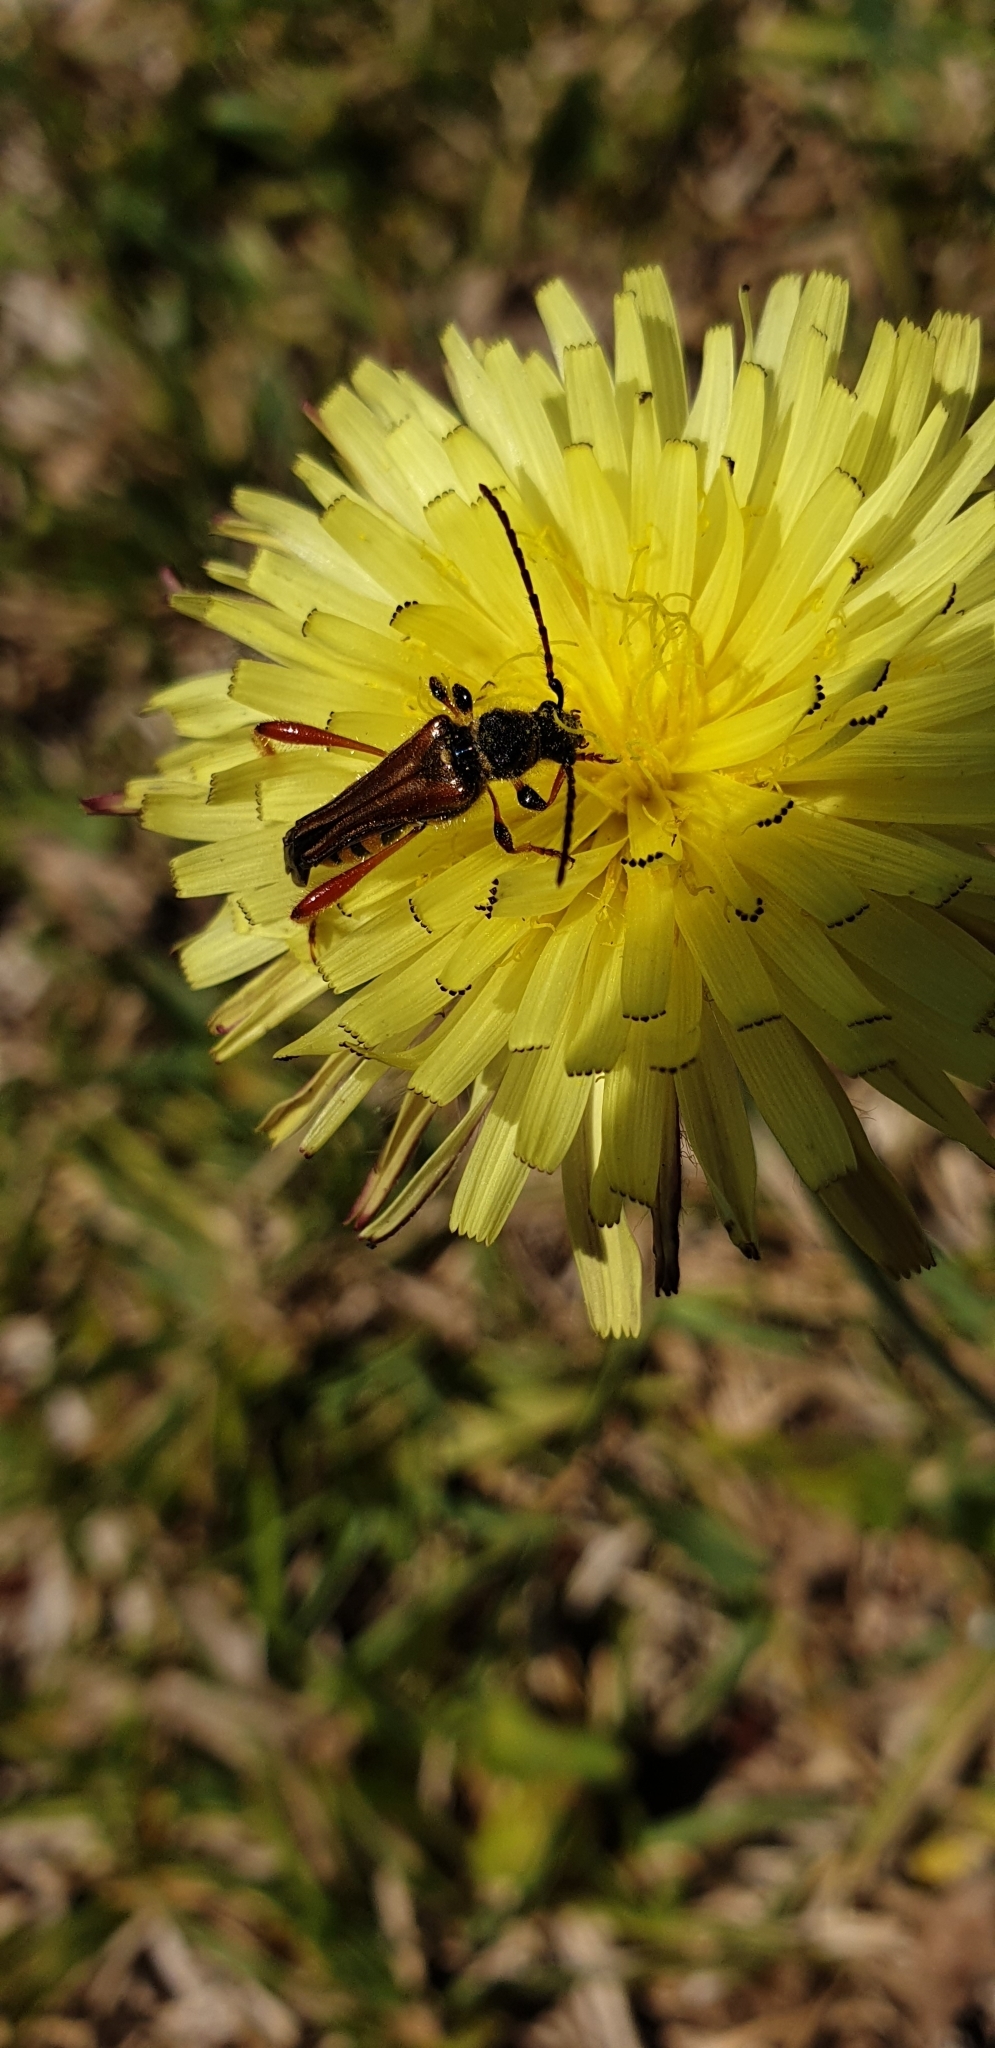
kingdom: Animalia
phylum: Arthropoda
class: Insecta
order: Coleoptera
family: Cerambycidae
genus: Stenopterus
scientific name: Stenopterus rufus
